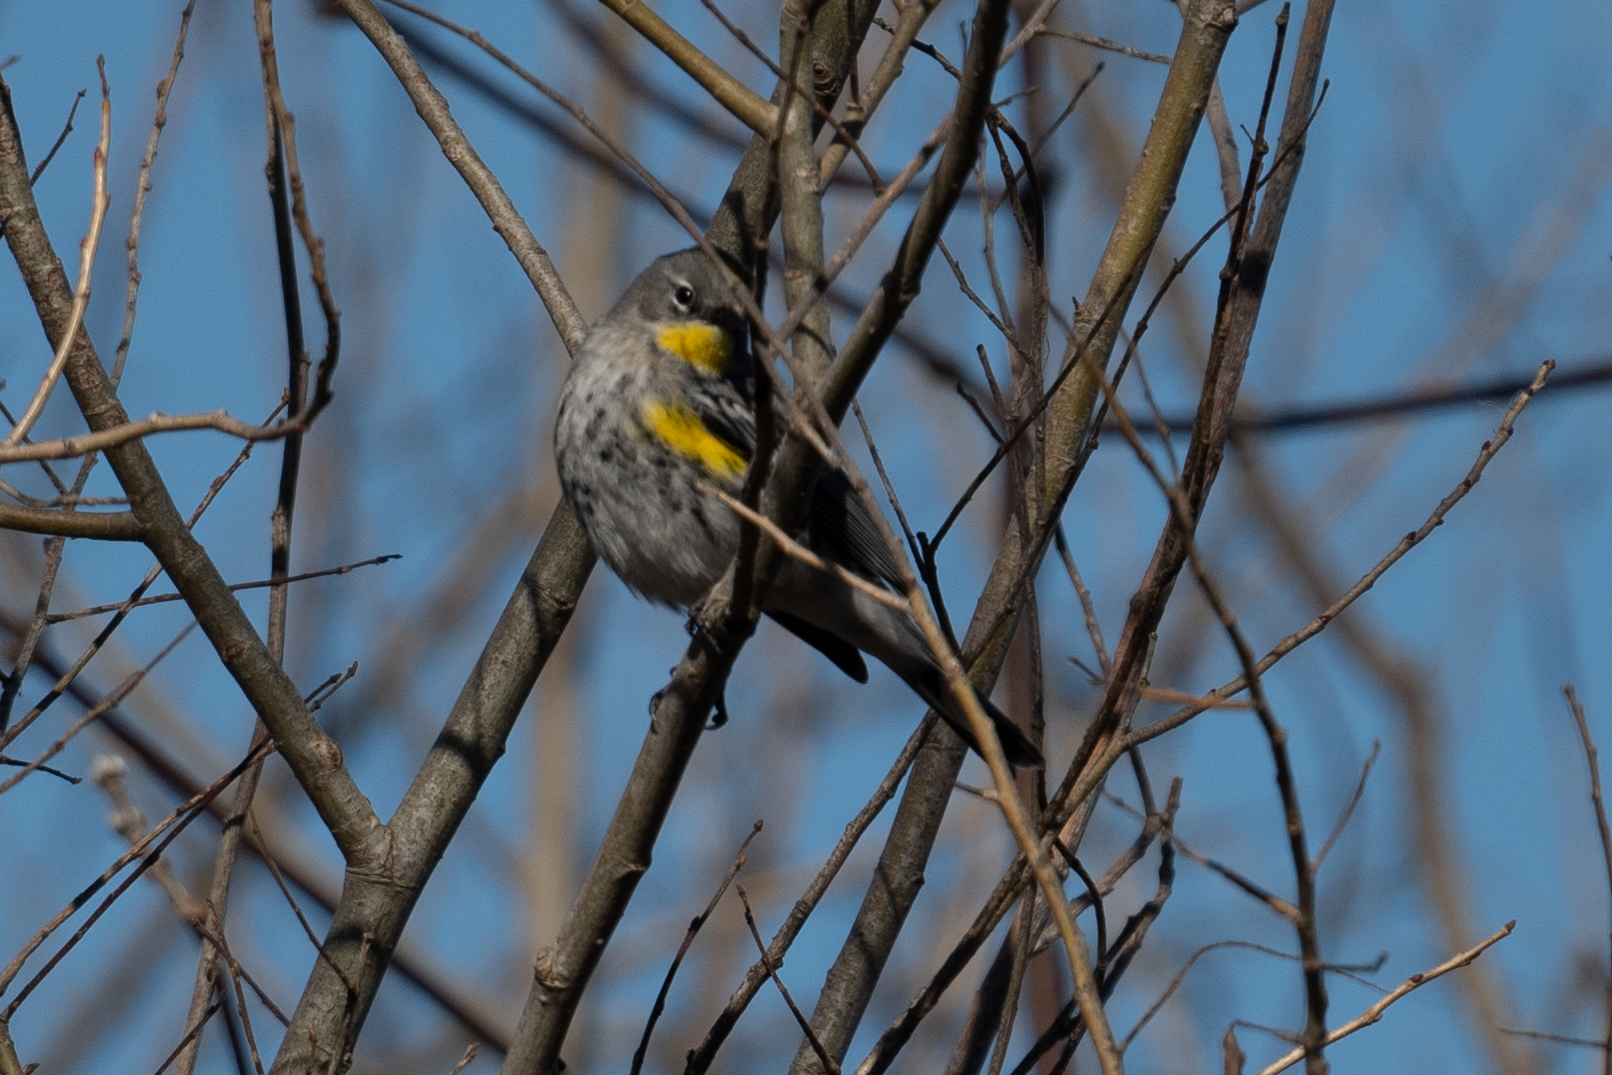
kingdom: Animalia
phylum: Chordata
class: Aves
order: Passeriformes
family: Parulidae
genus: Setophaga
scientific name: Setophaga coronata
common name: Myrtle warbler
